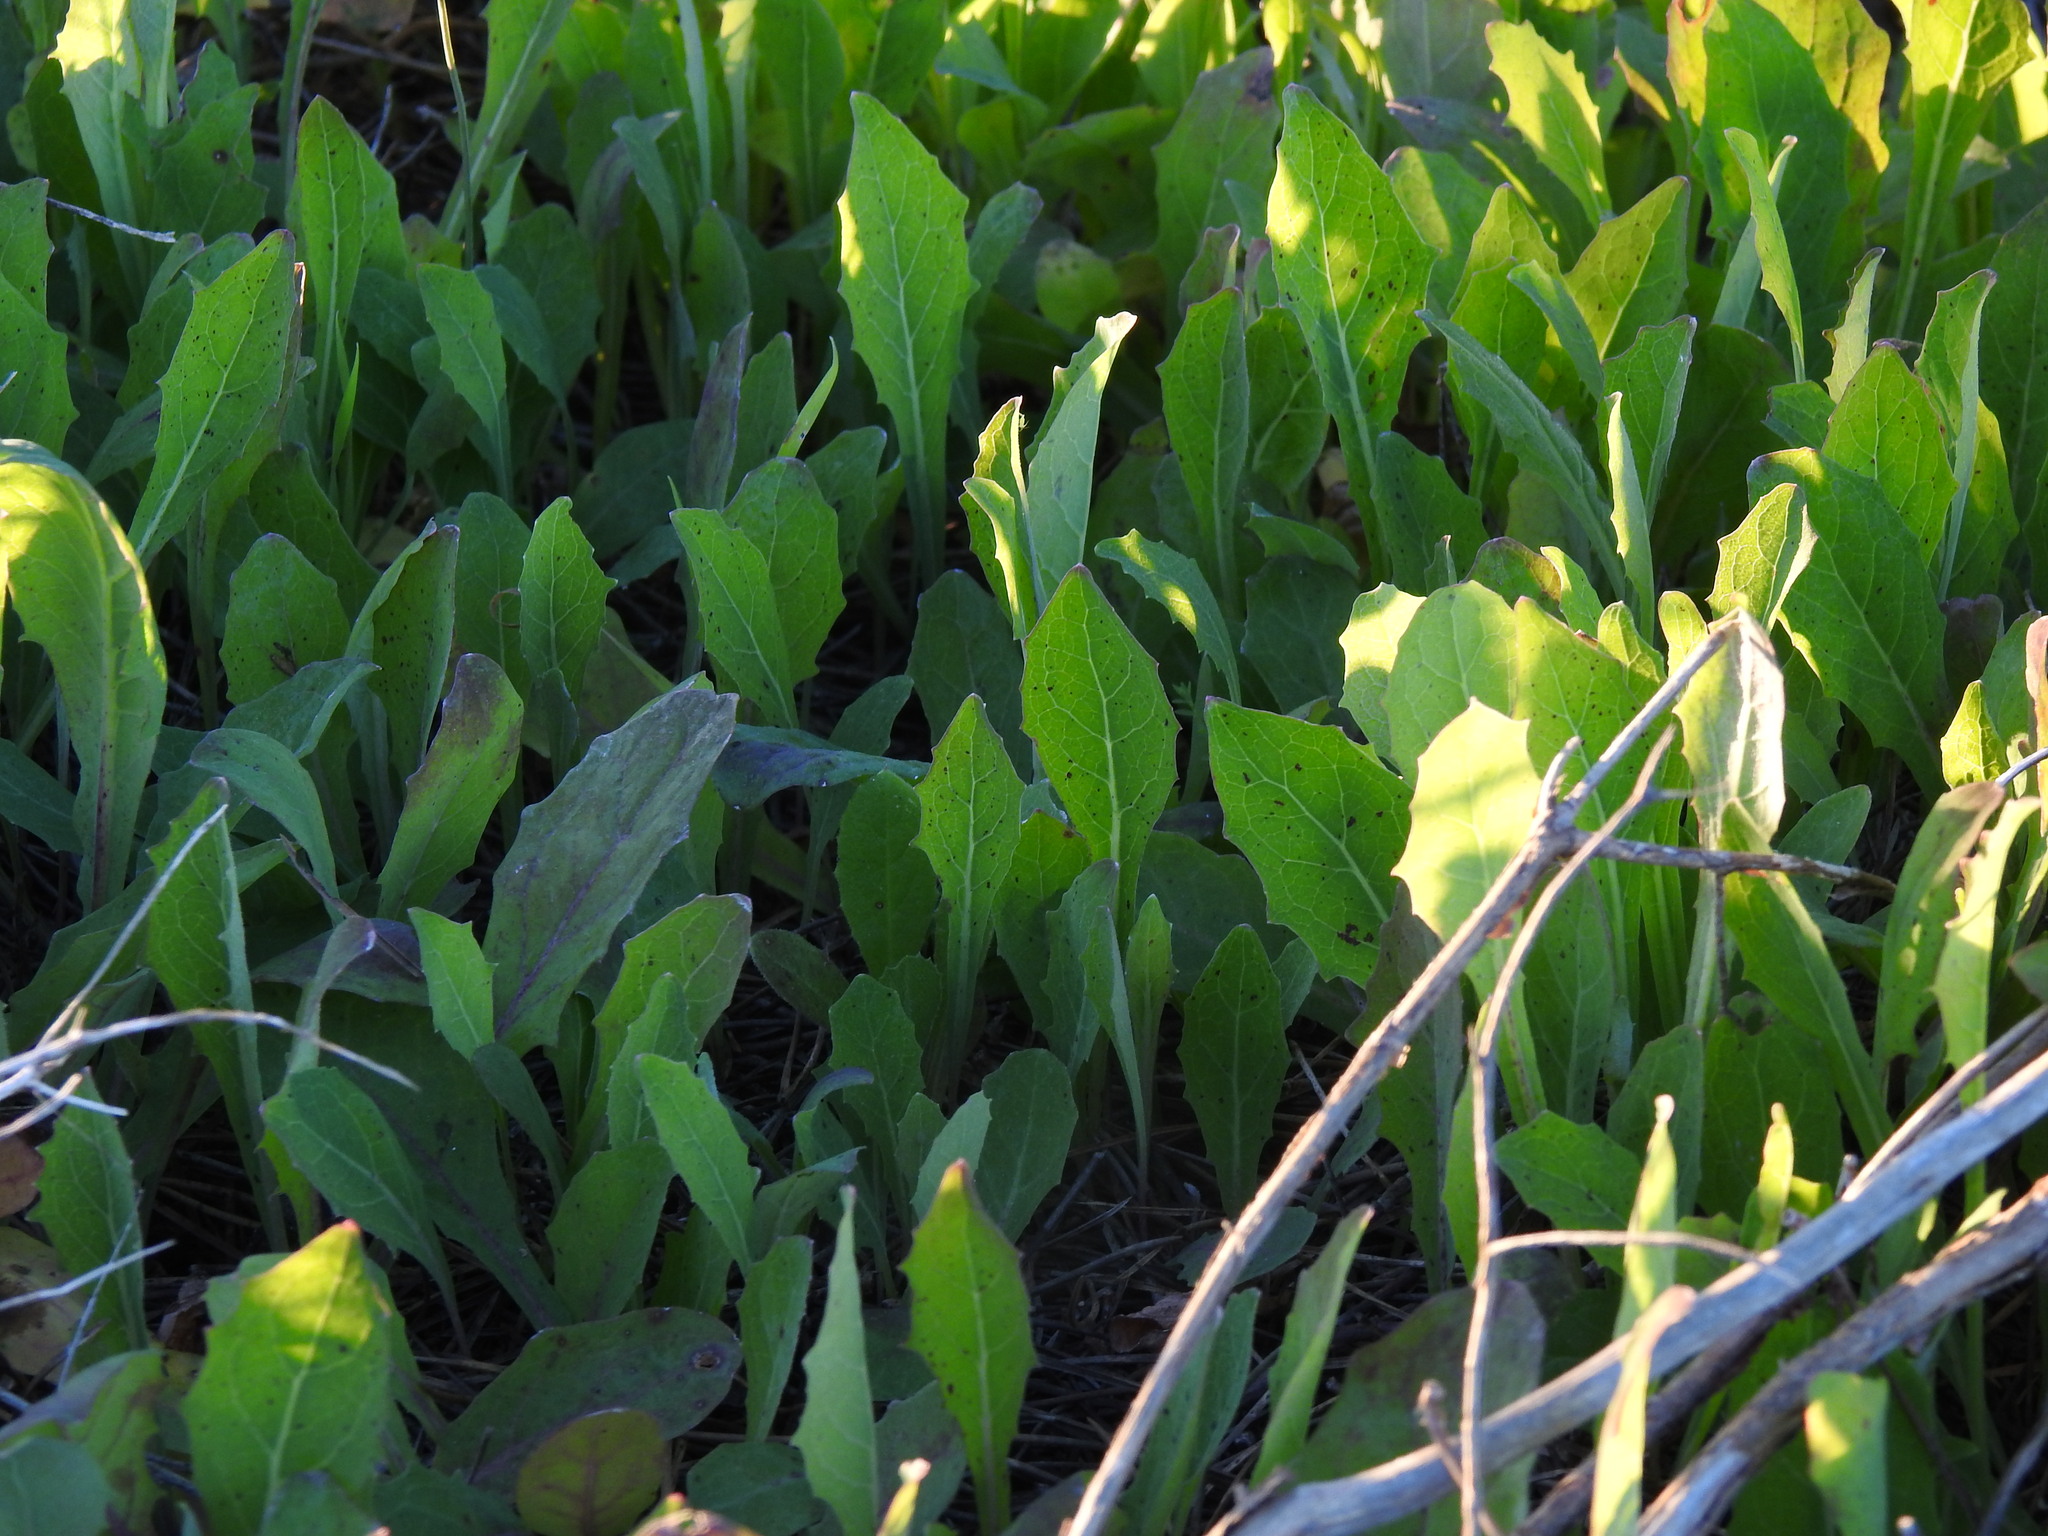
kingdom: Plantae
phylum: Tracheophyta
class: Magnoliopsida
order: Asterales
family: Asteraceae
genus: Aetheorhiza
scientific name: Aetheorhiza bulbosa
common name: Tuberous hawk's-beard
